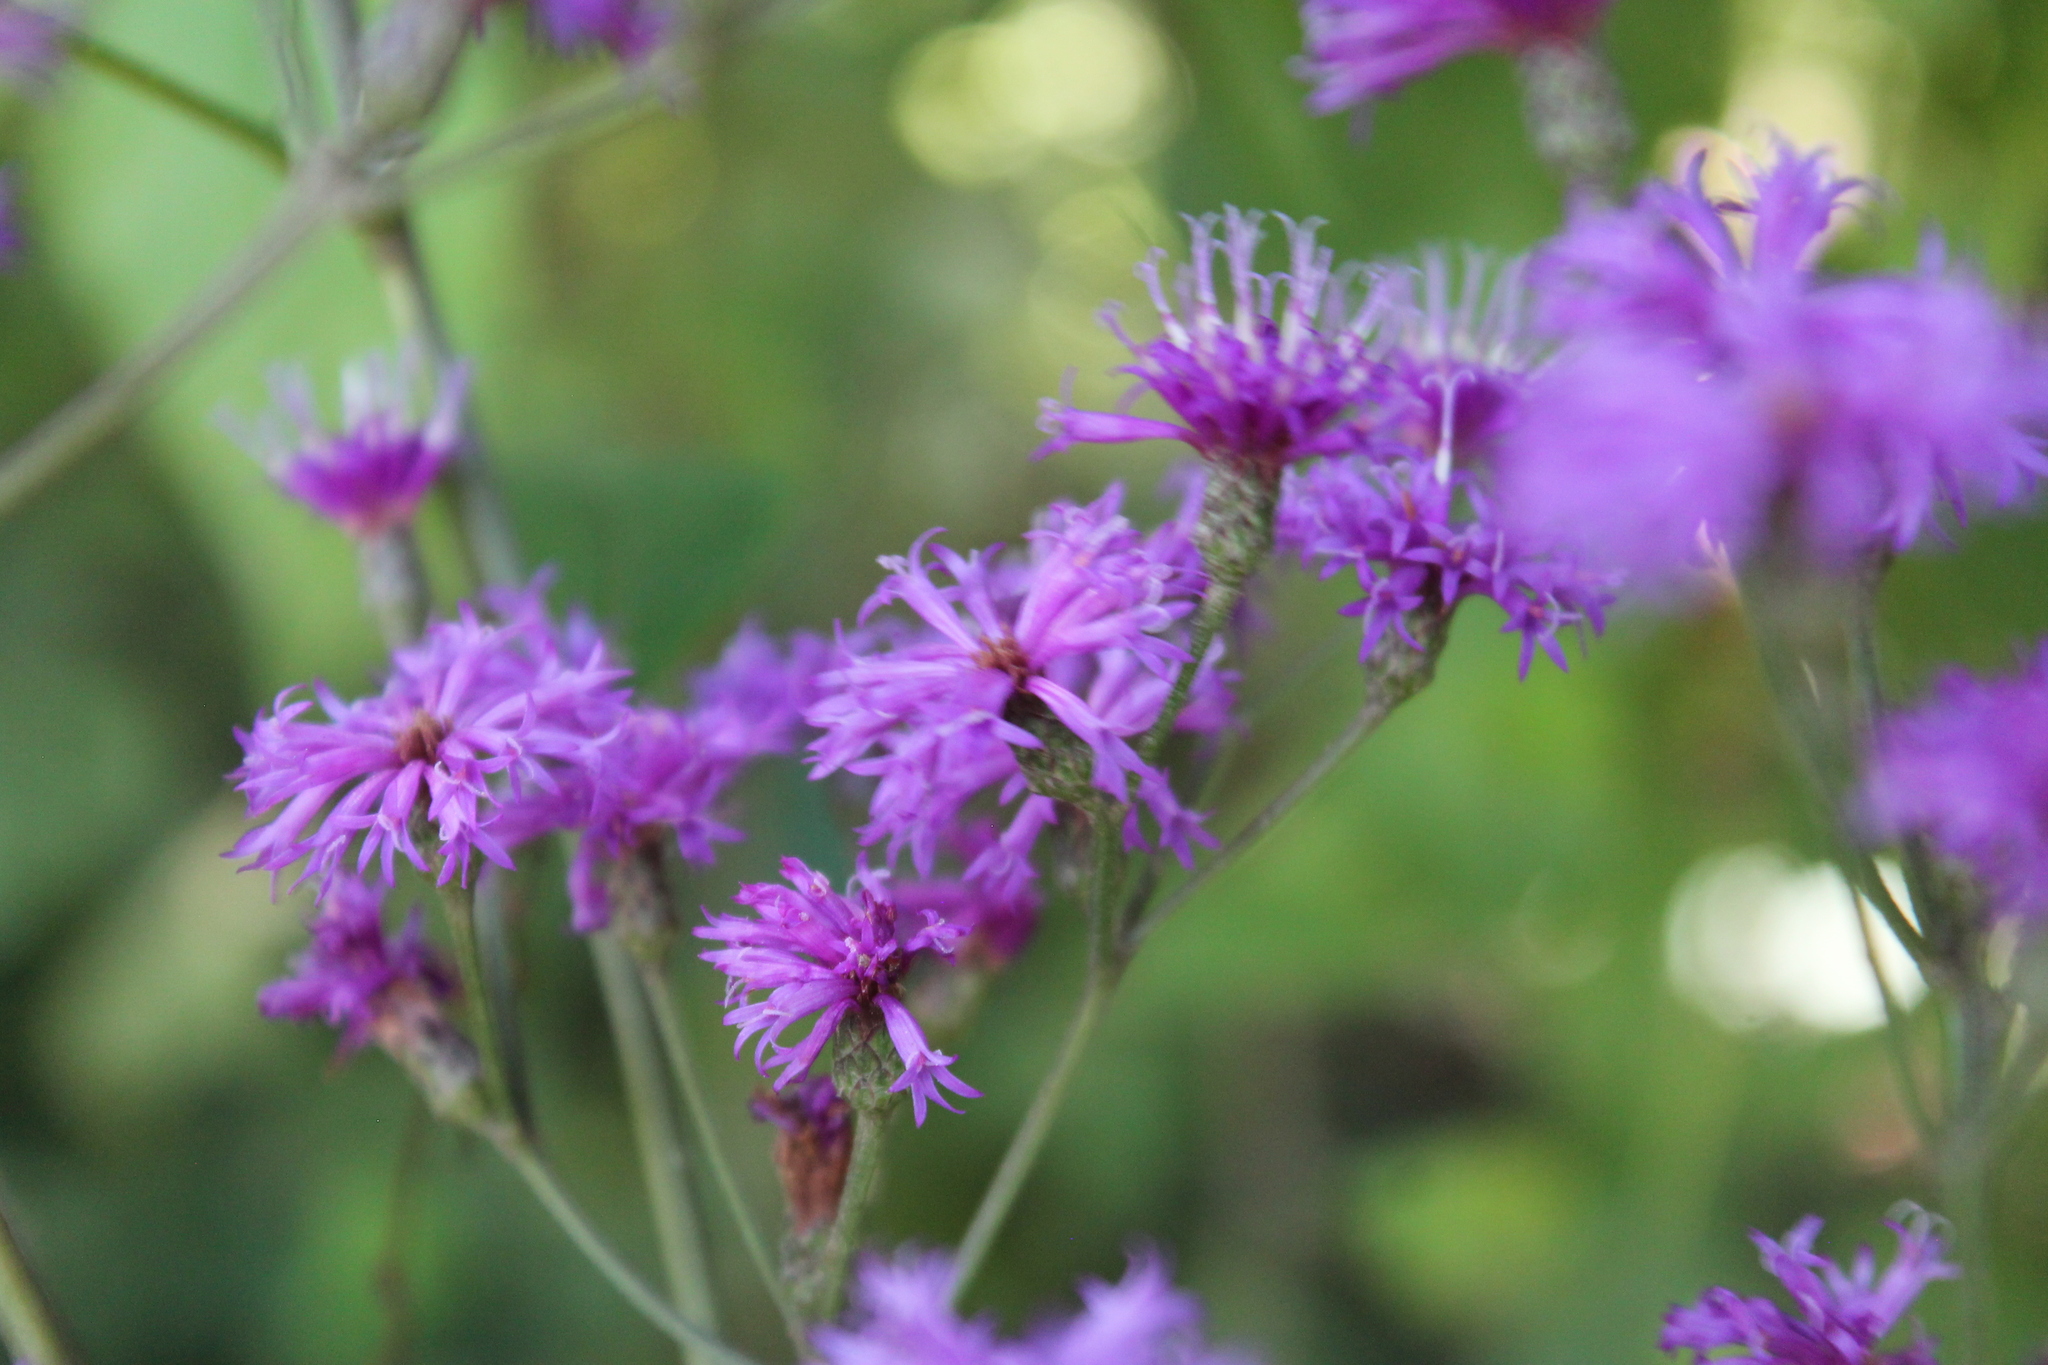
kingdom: Plantae
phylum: Tracheophyta
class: Magnoliopsida
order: Asterales
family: Asteraceae
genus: Vernonia
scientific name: Vernonia gigantea
